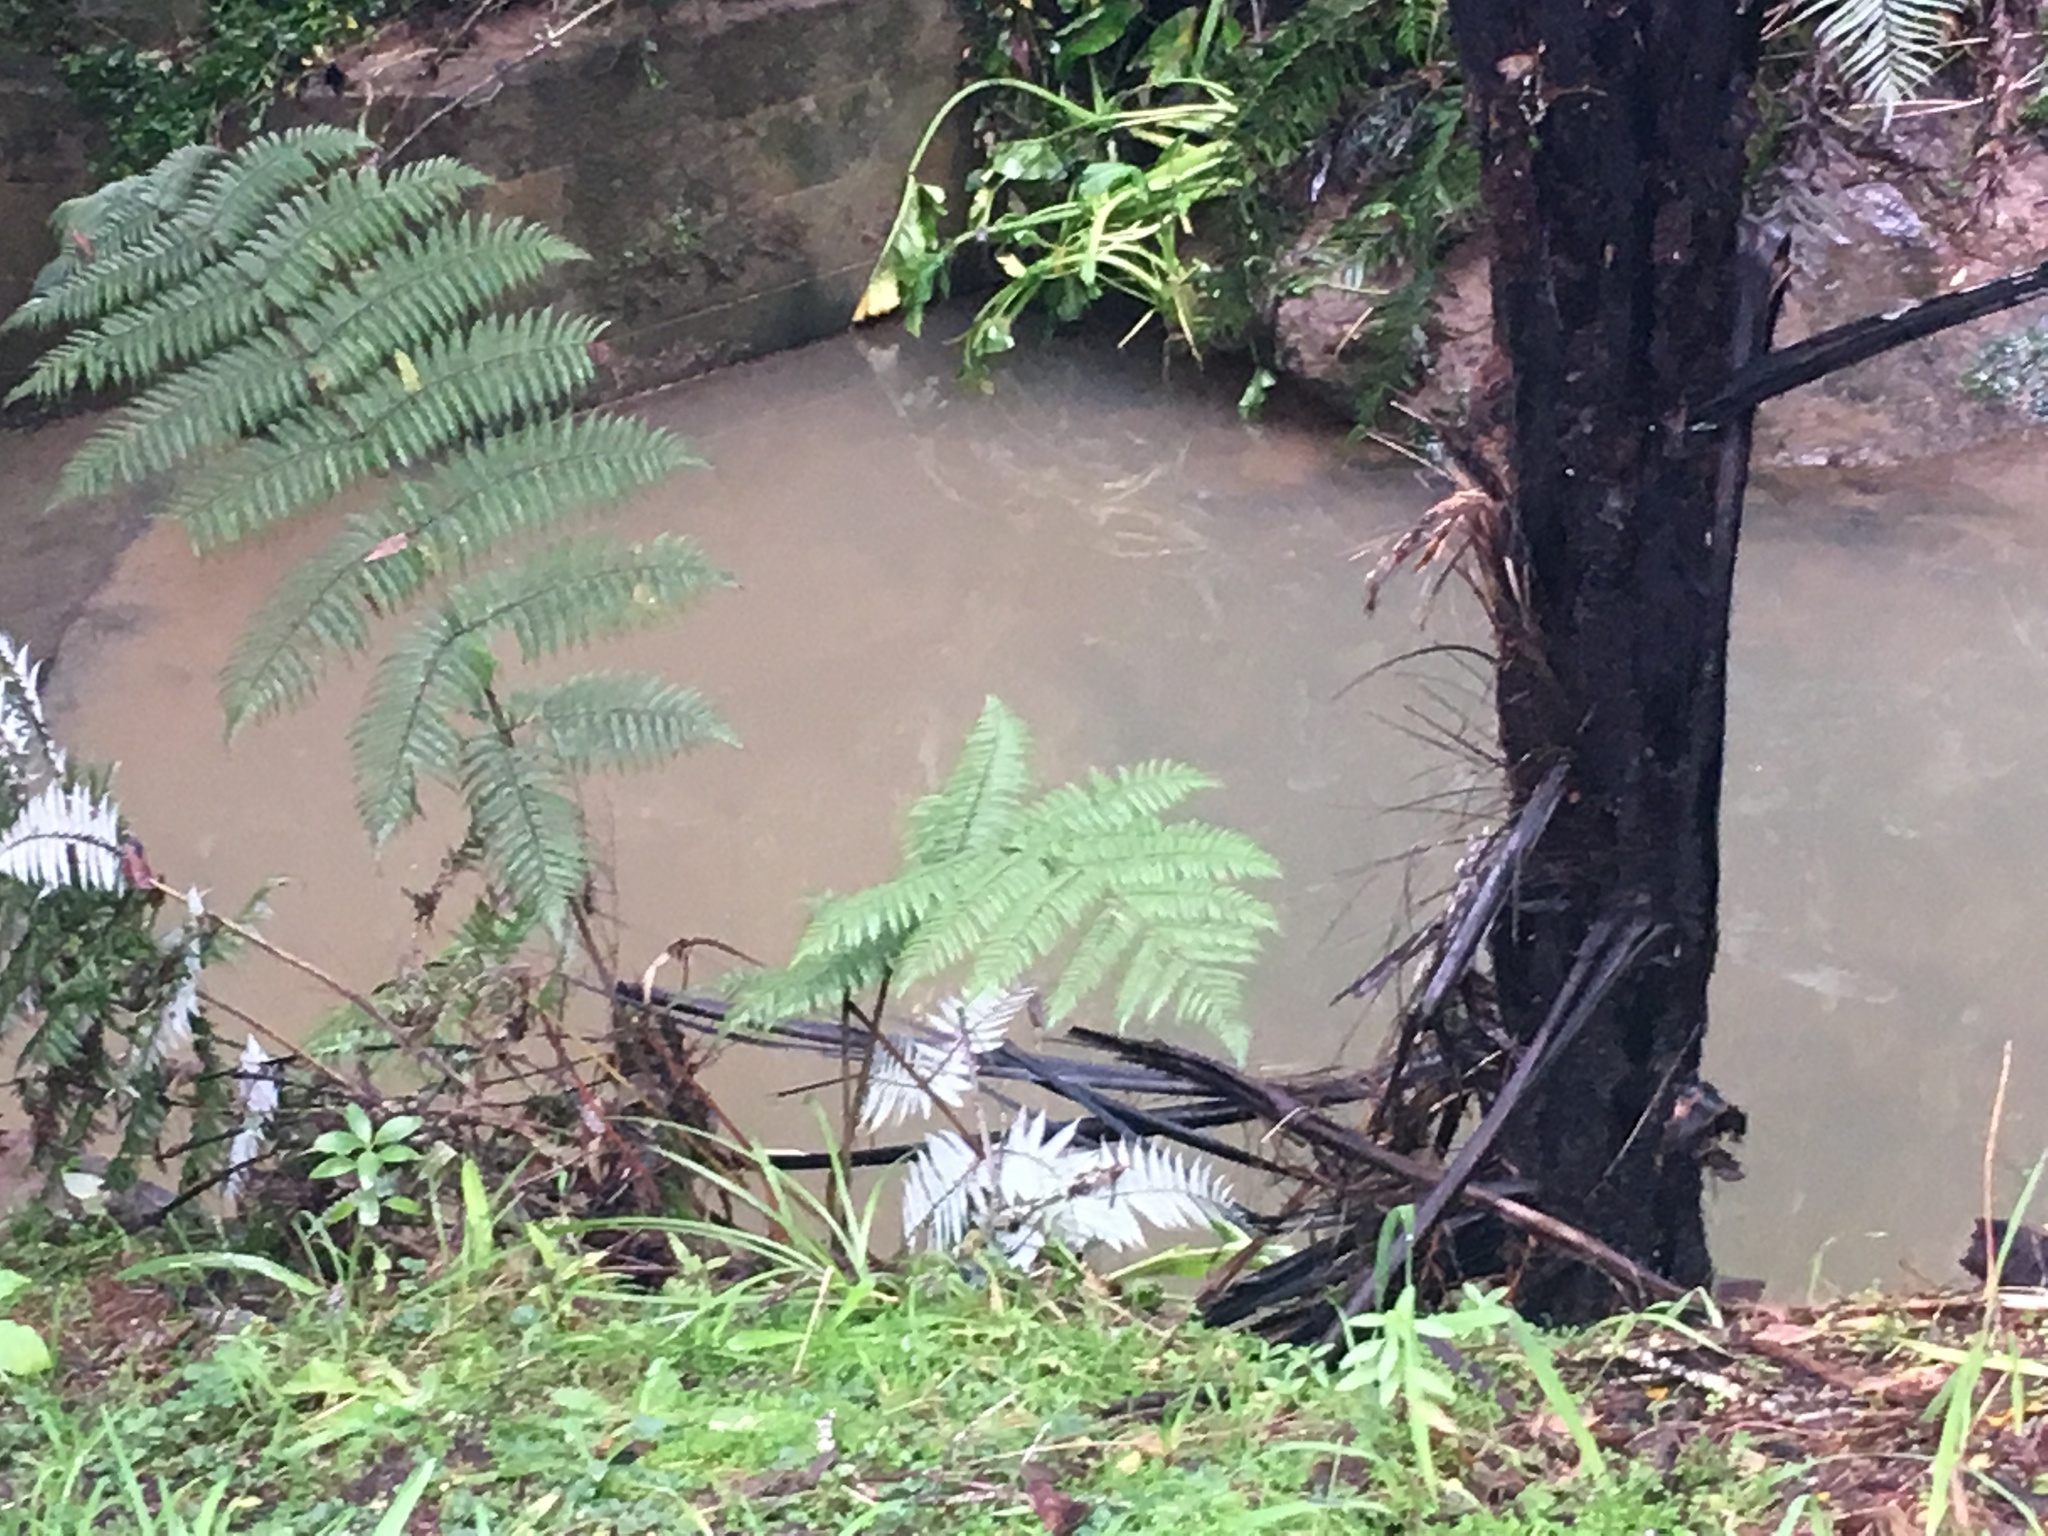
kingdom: Plantae
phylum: Tracheophyta
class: Polypodiopsida
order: Cyatheales
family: Cyatheaceae
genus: Sphaeropteris
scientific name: Sphaeropteris medullaris
